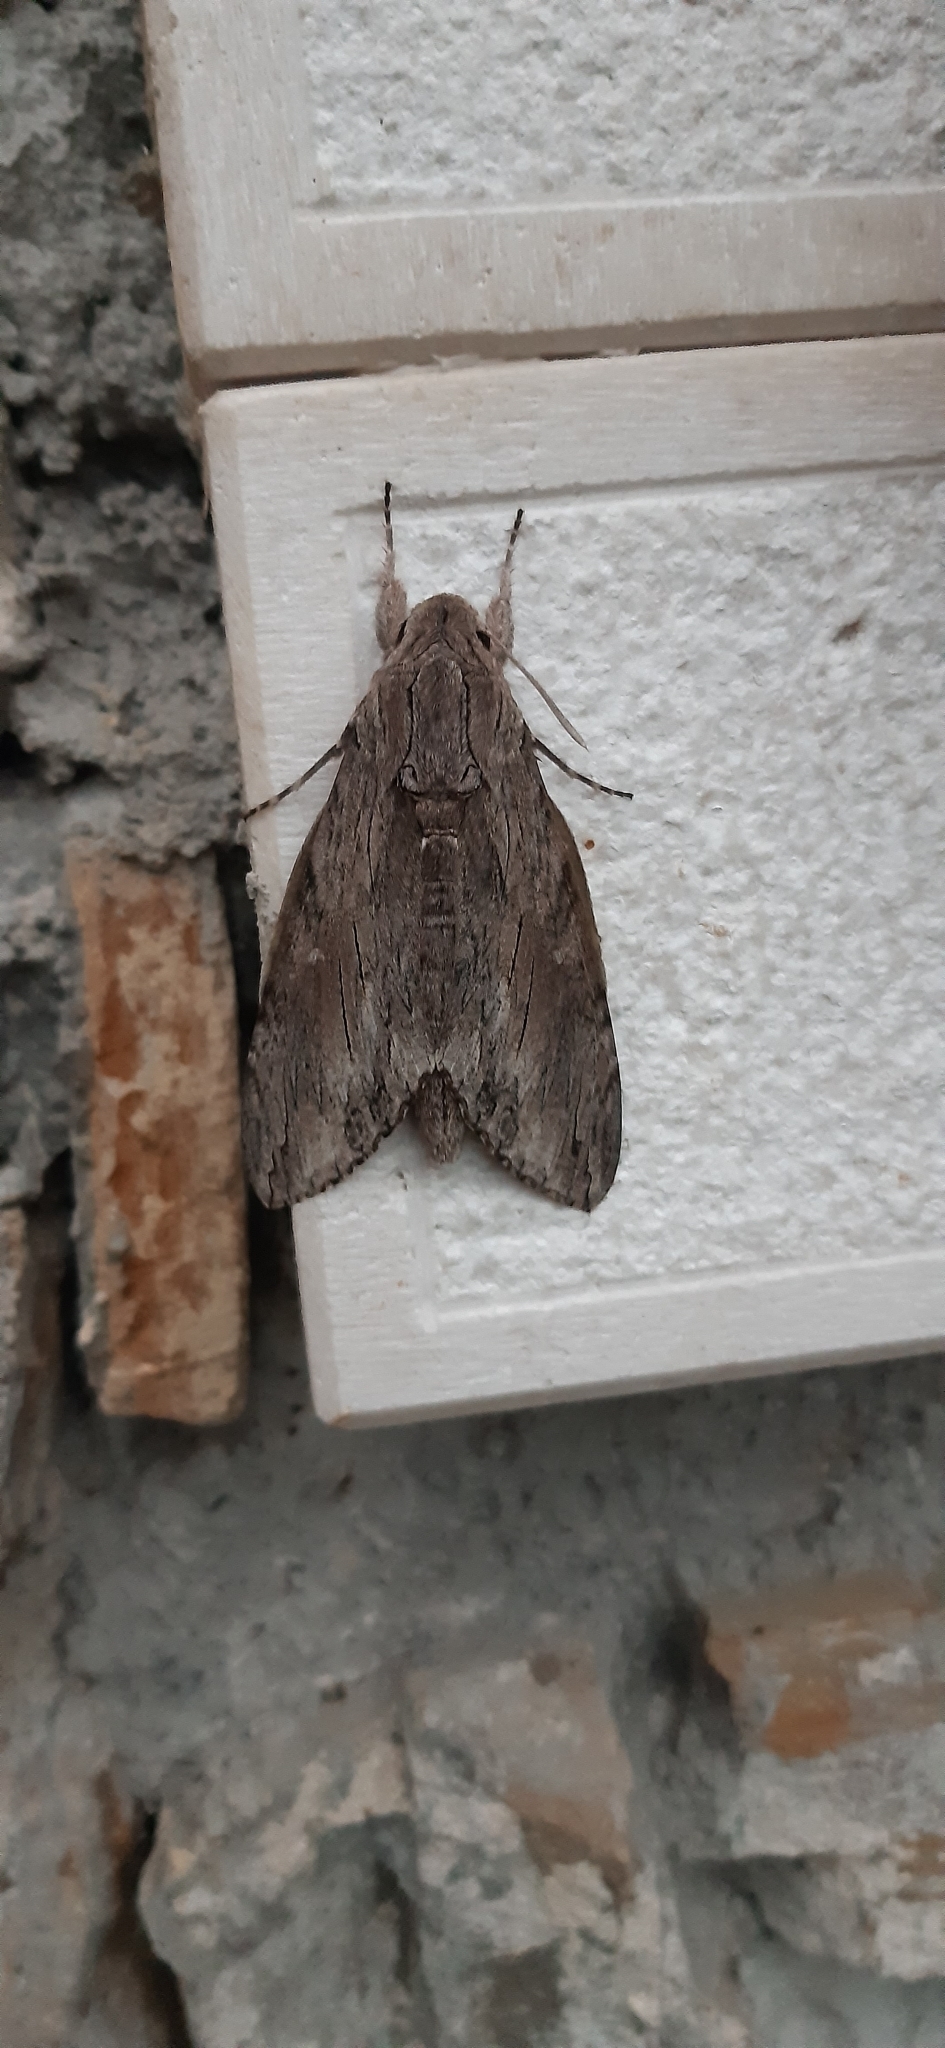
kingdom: Animalia
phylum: Arthropoda
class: Insecta
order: Lepidoptera
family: Sphingidae
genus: Agrius
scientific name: Agrius convolvuli
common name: Convolvulus hawkmoth
